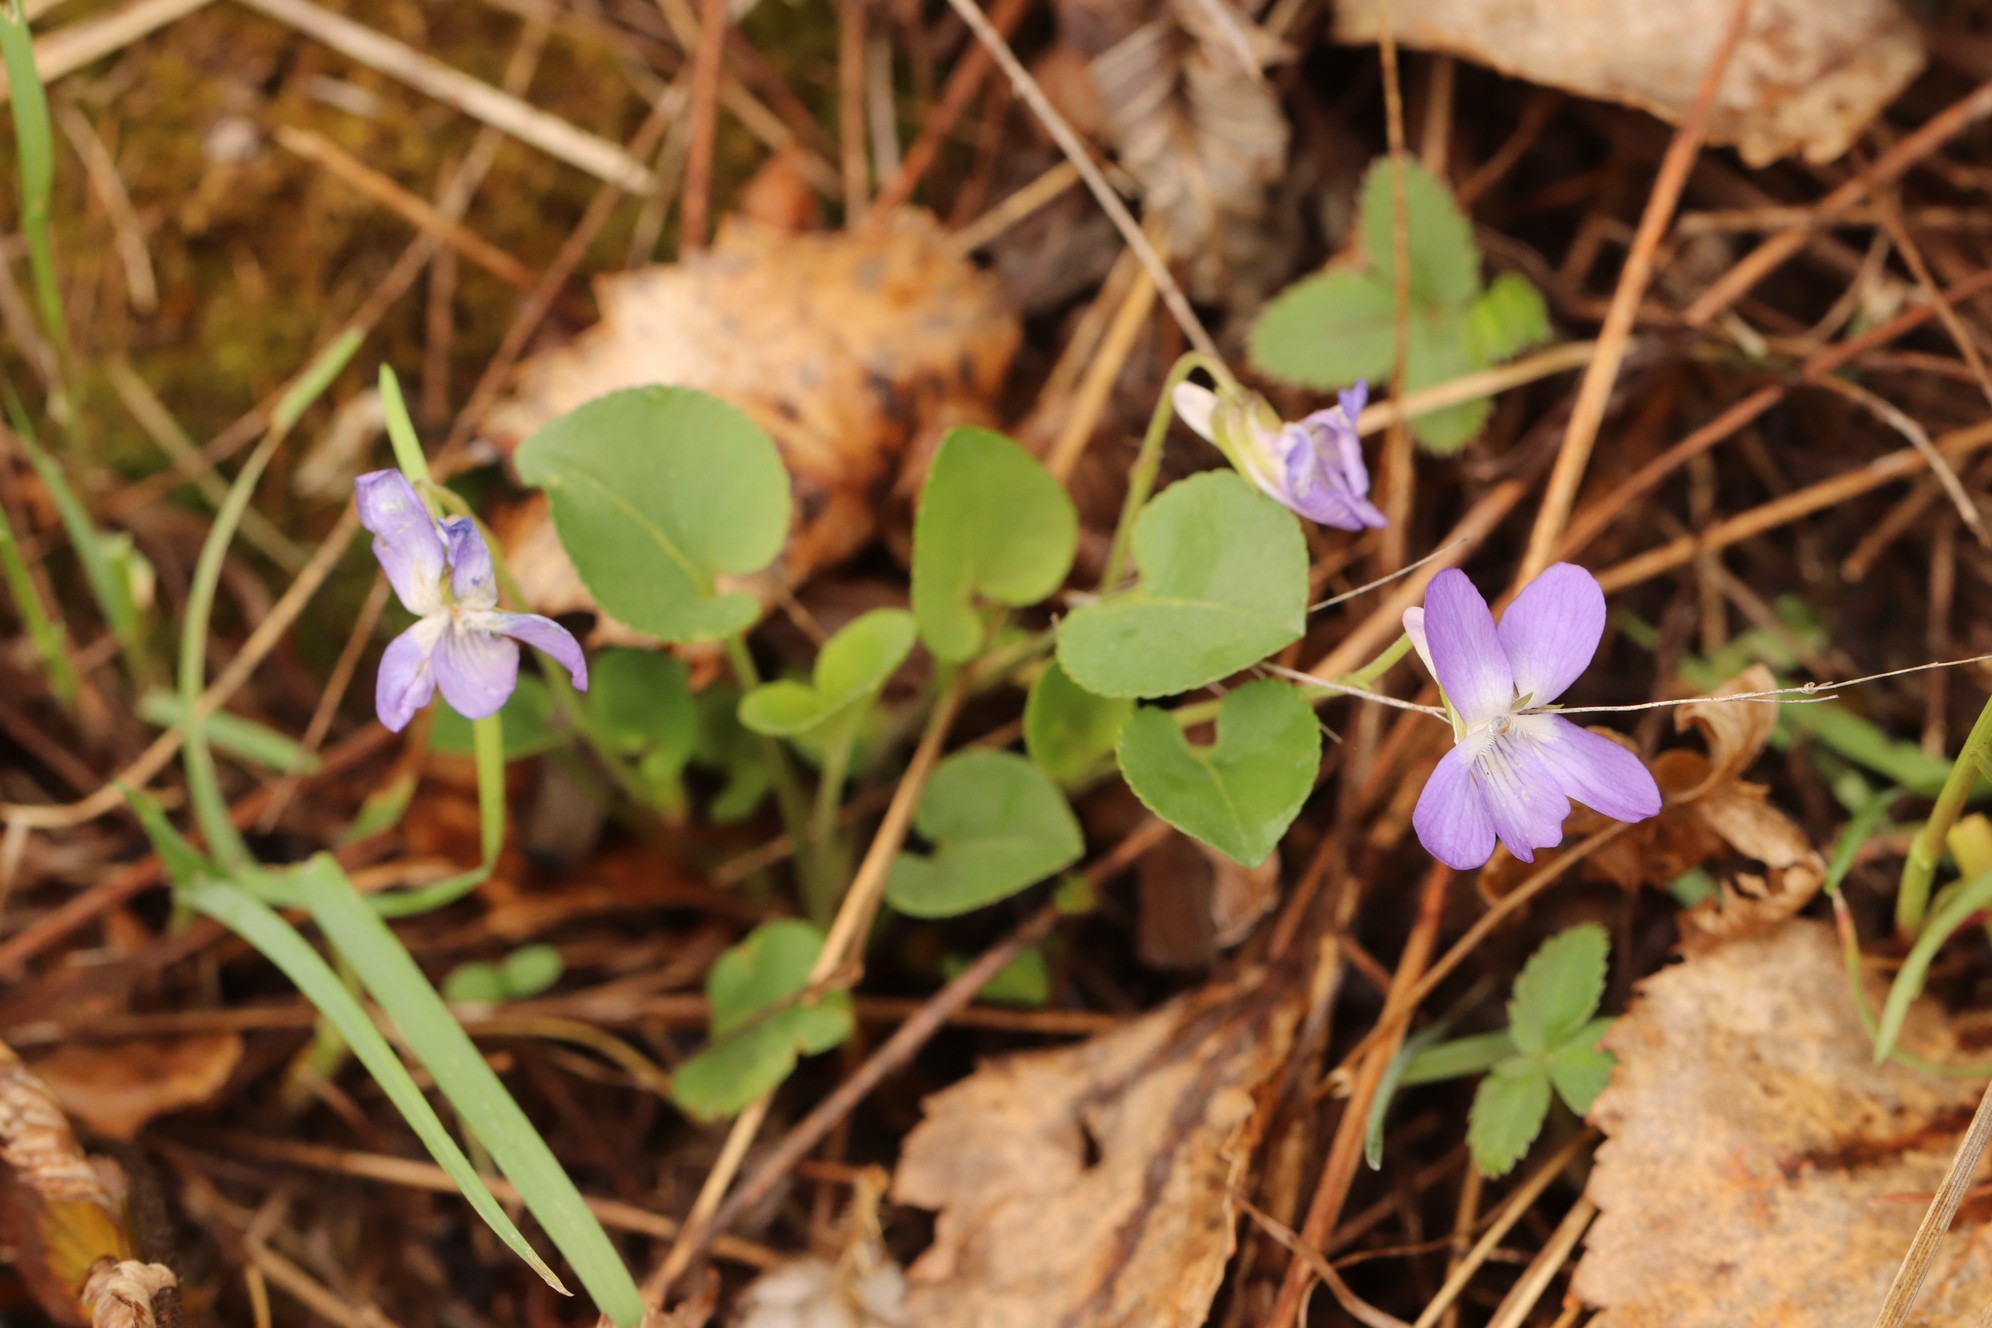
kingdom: Plantae
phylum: Tracheophyta
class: Magnoliopsida
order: Malpighiales
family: Violaceae
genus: Viola
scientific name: Viola rupestris
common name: Teesdale violet
